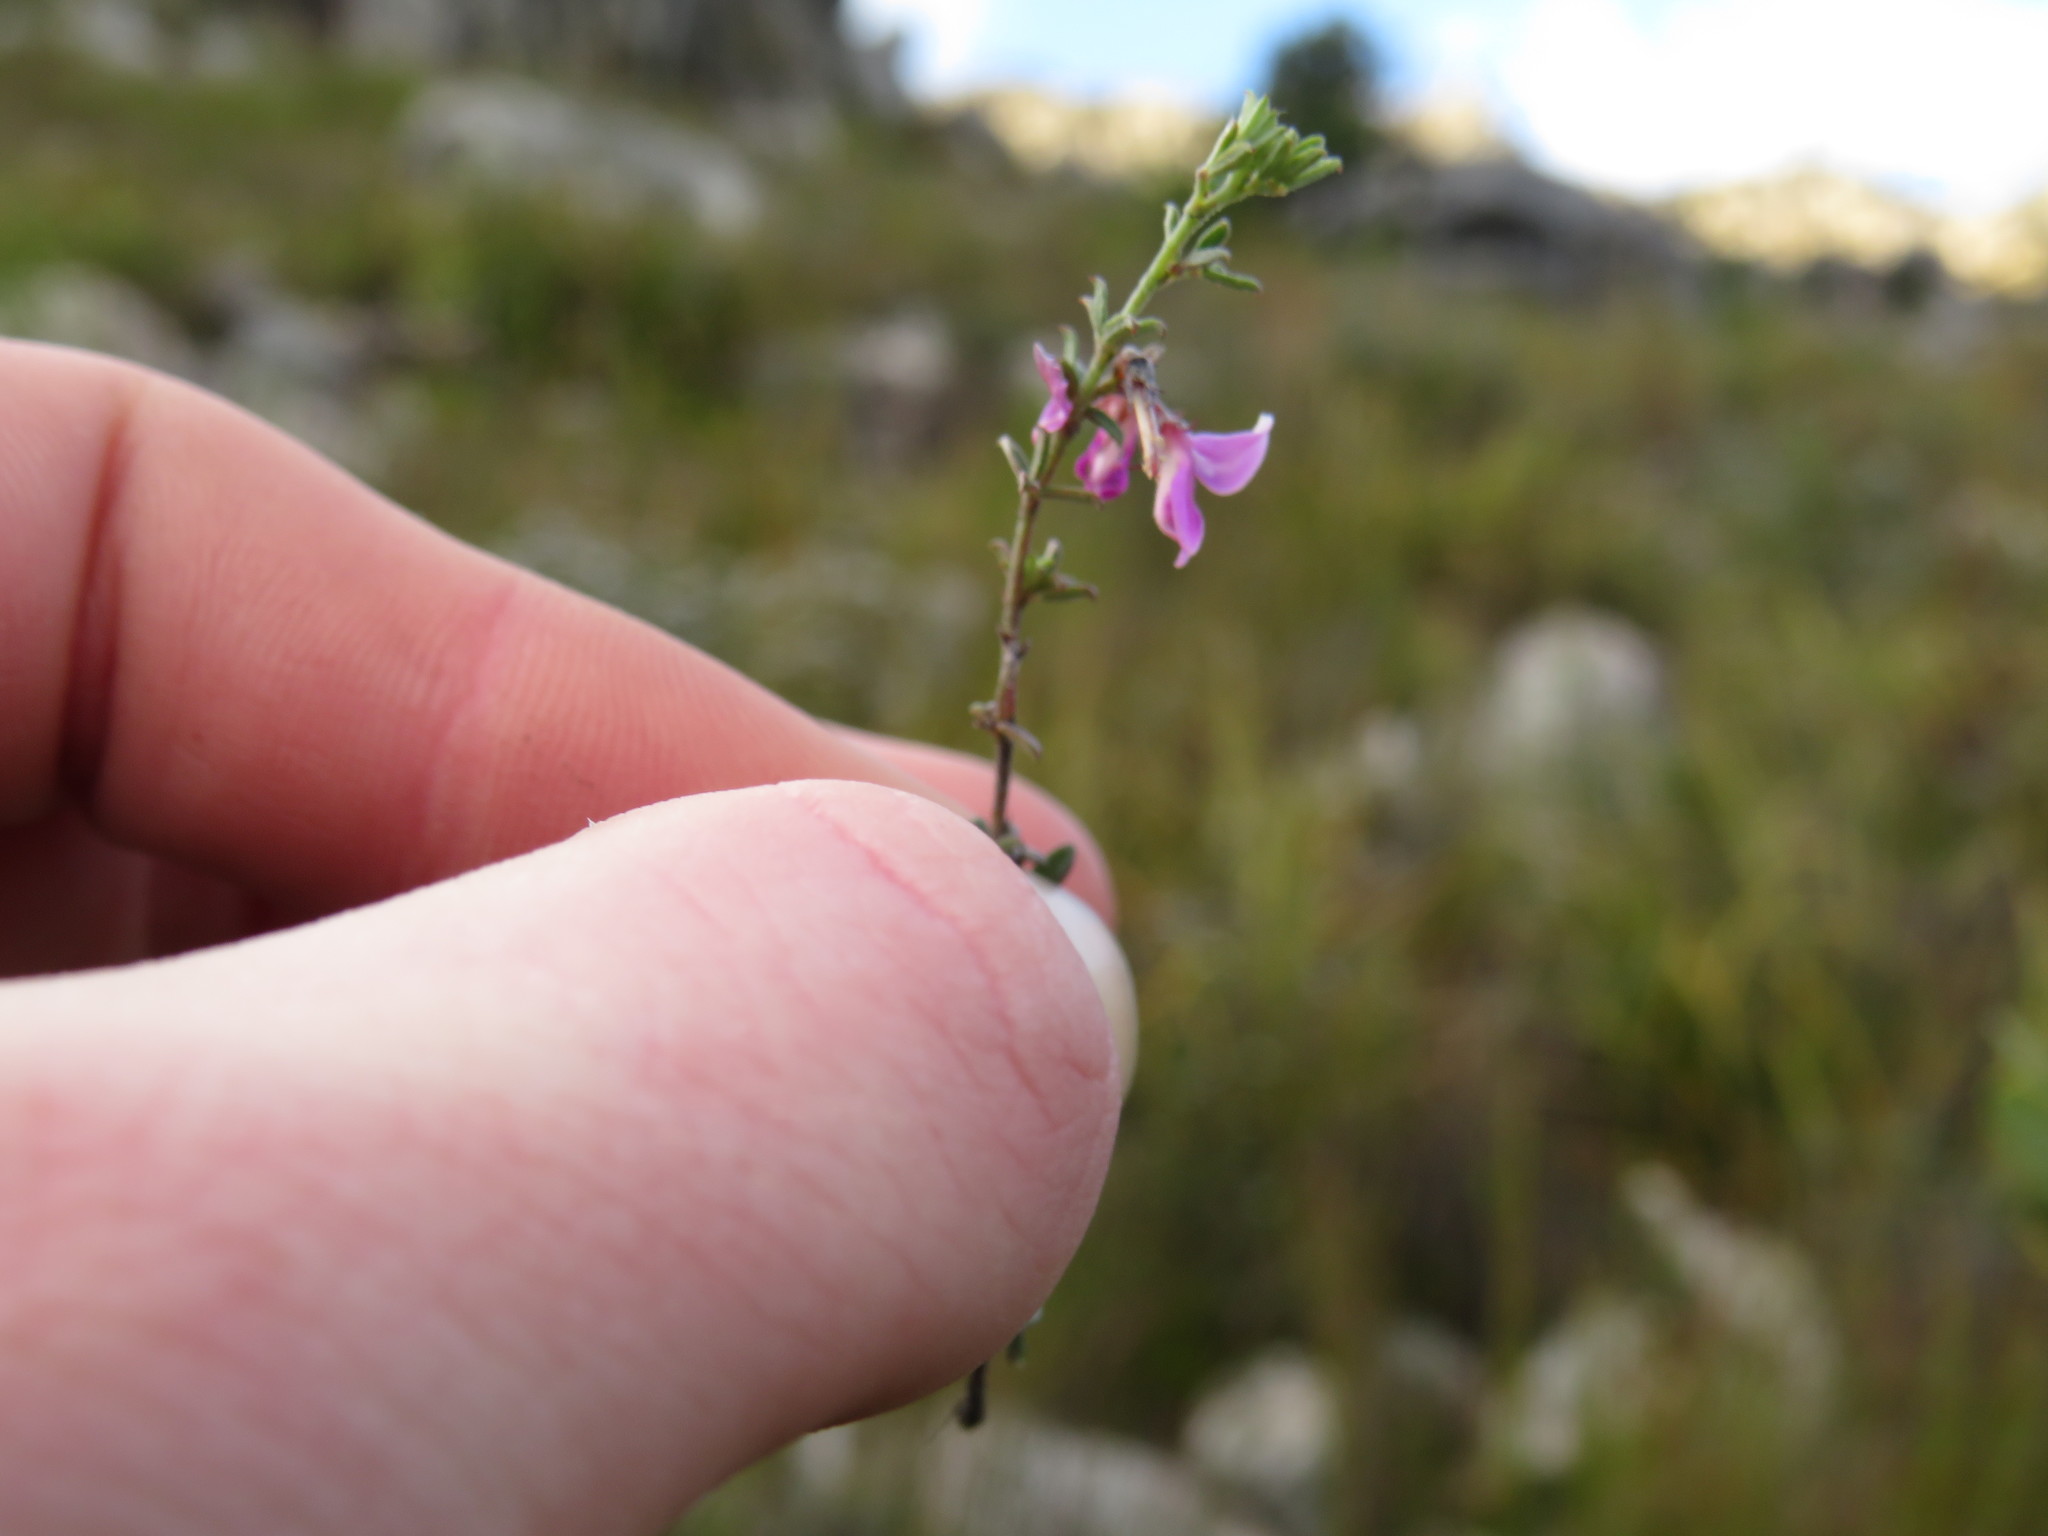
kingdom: Plantae
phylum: Tracheophyta
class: Magnoliopsida
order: Fabales
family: Fabaceae
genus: Indigofera
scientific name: Indigofera pilgeriana
